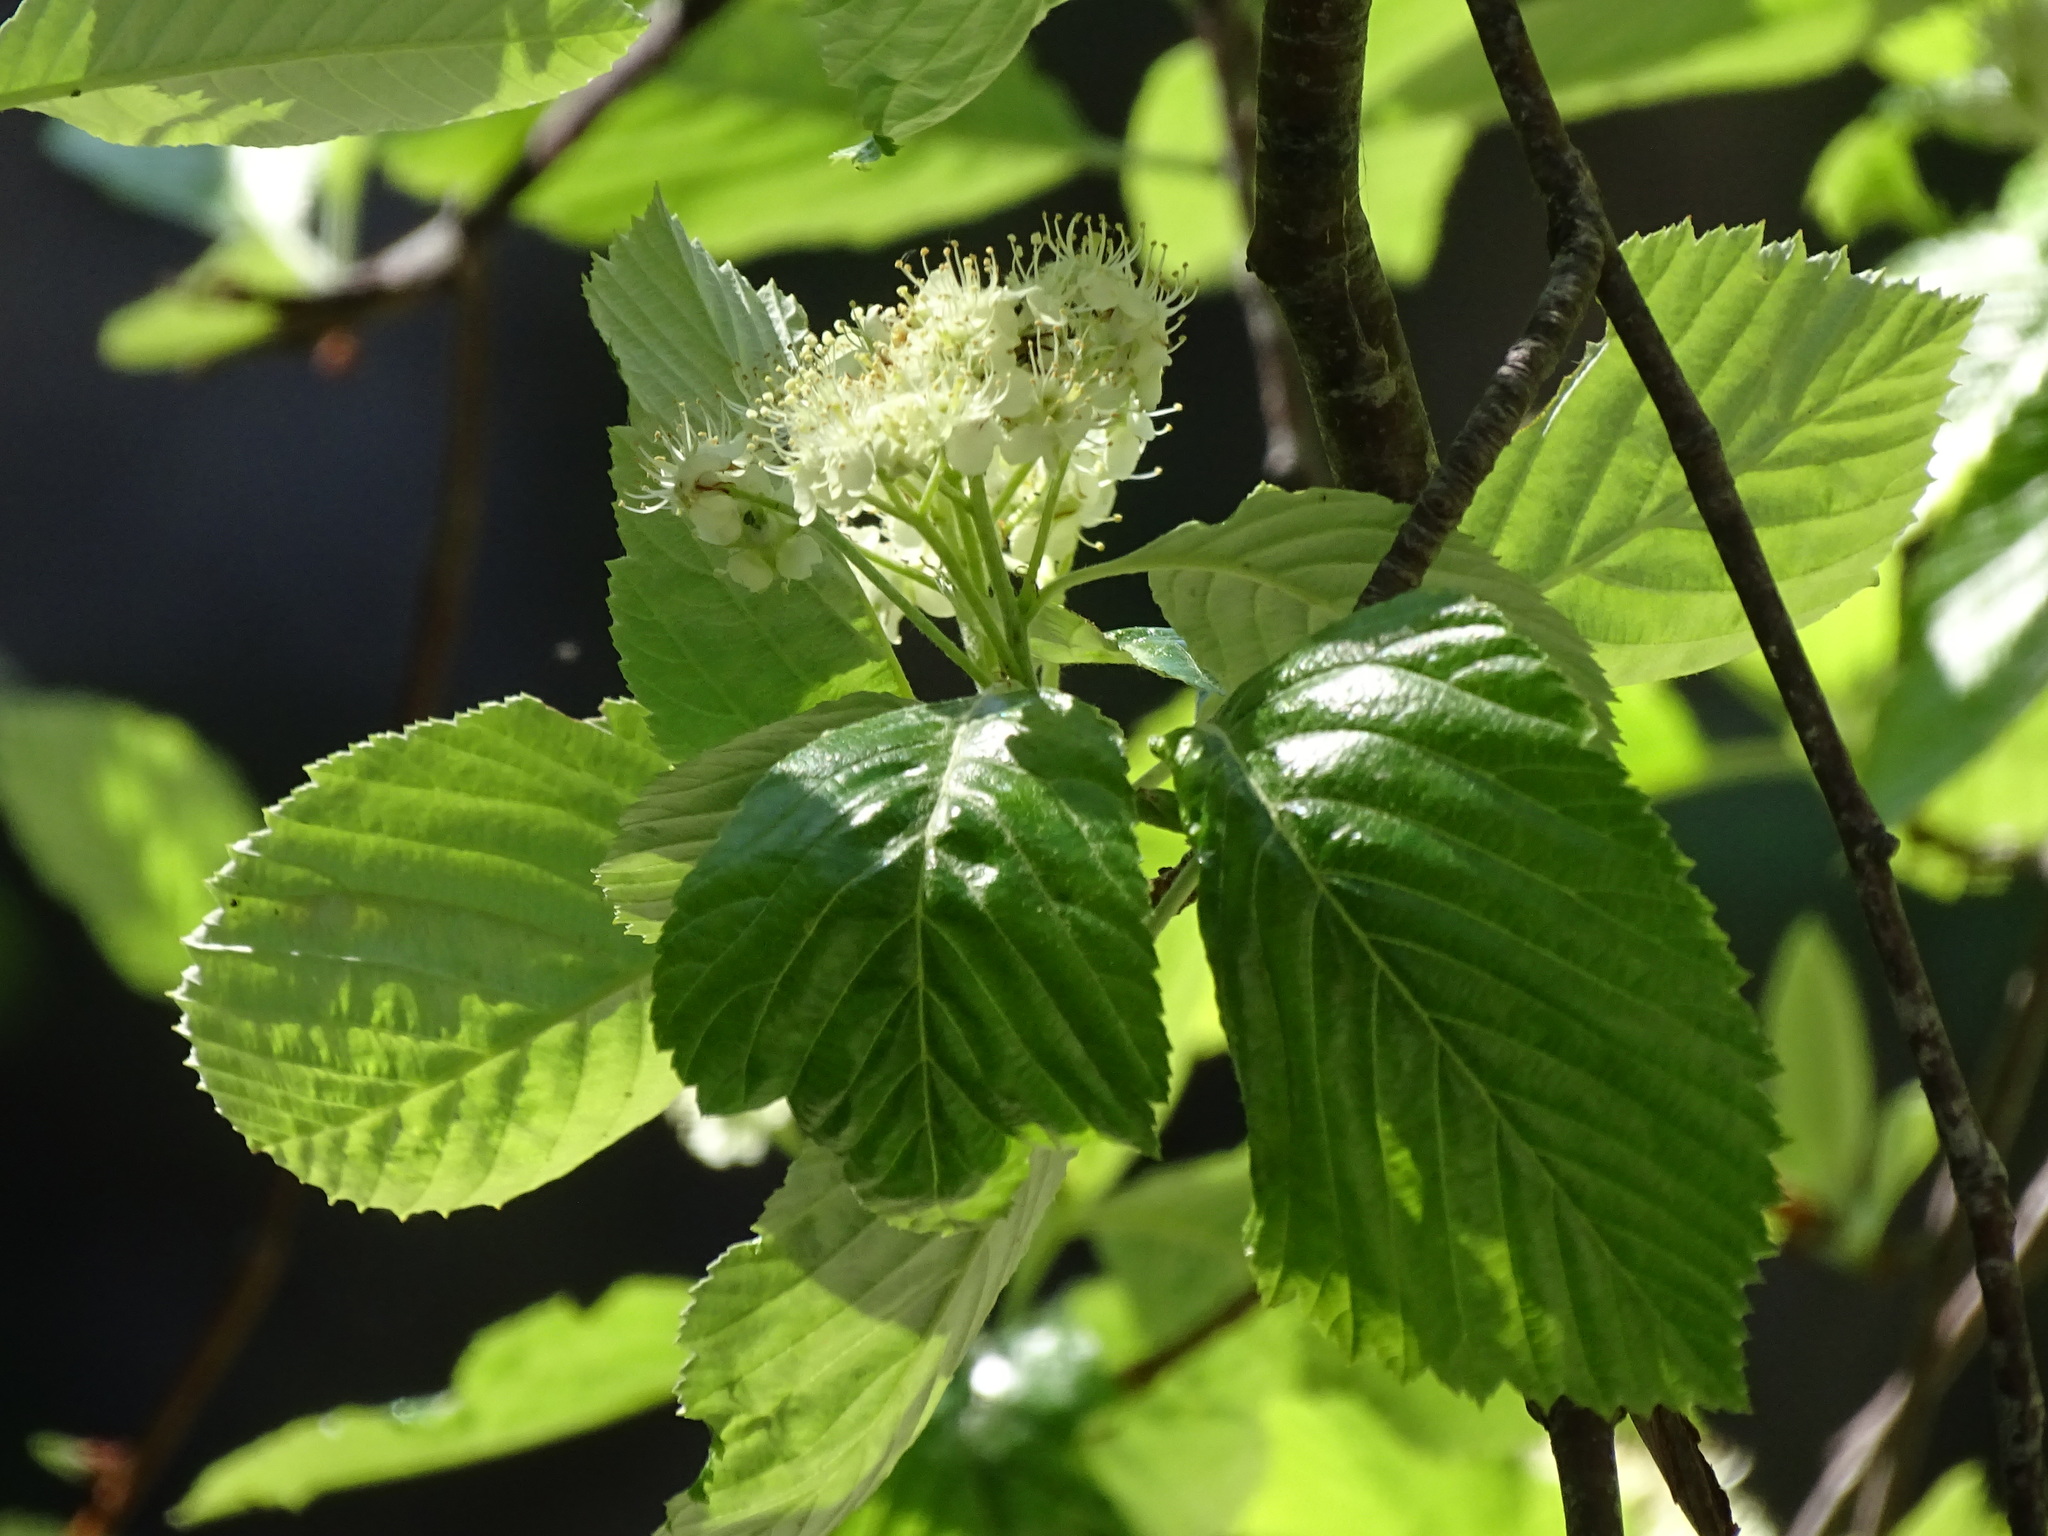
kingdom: Plantae
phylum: Tracheophyta
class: Magnoliopsida
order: Rosales
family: Rosaceae
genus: Aria
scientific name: Aria edulis
